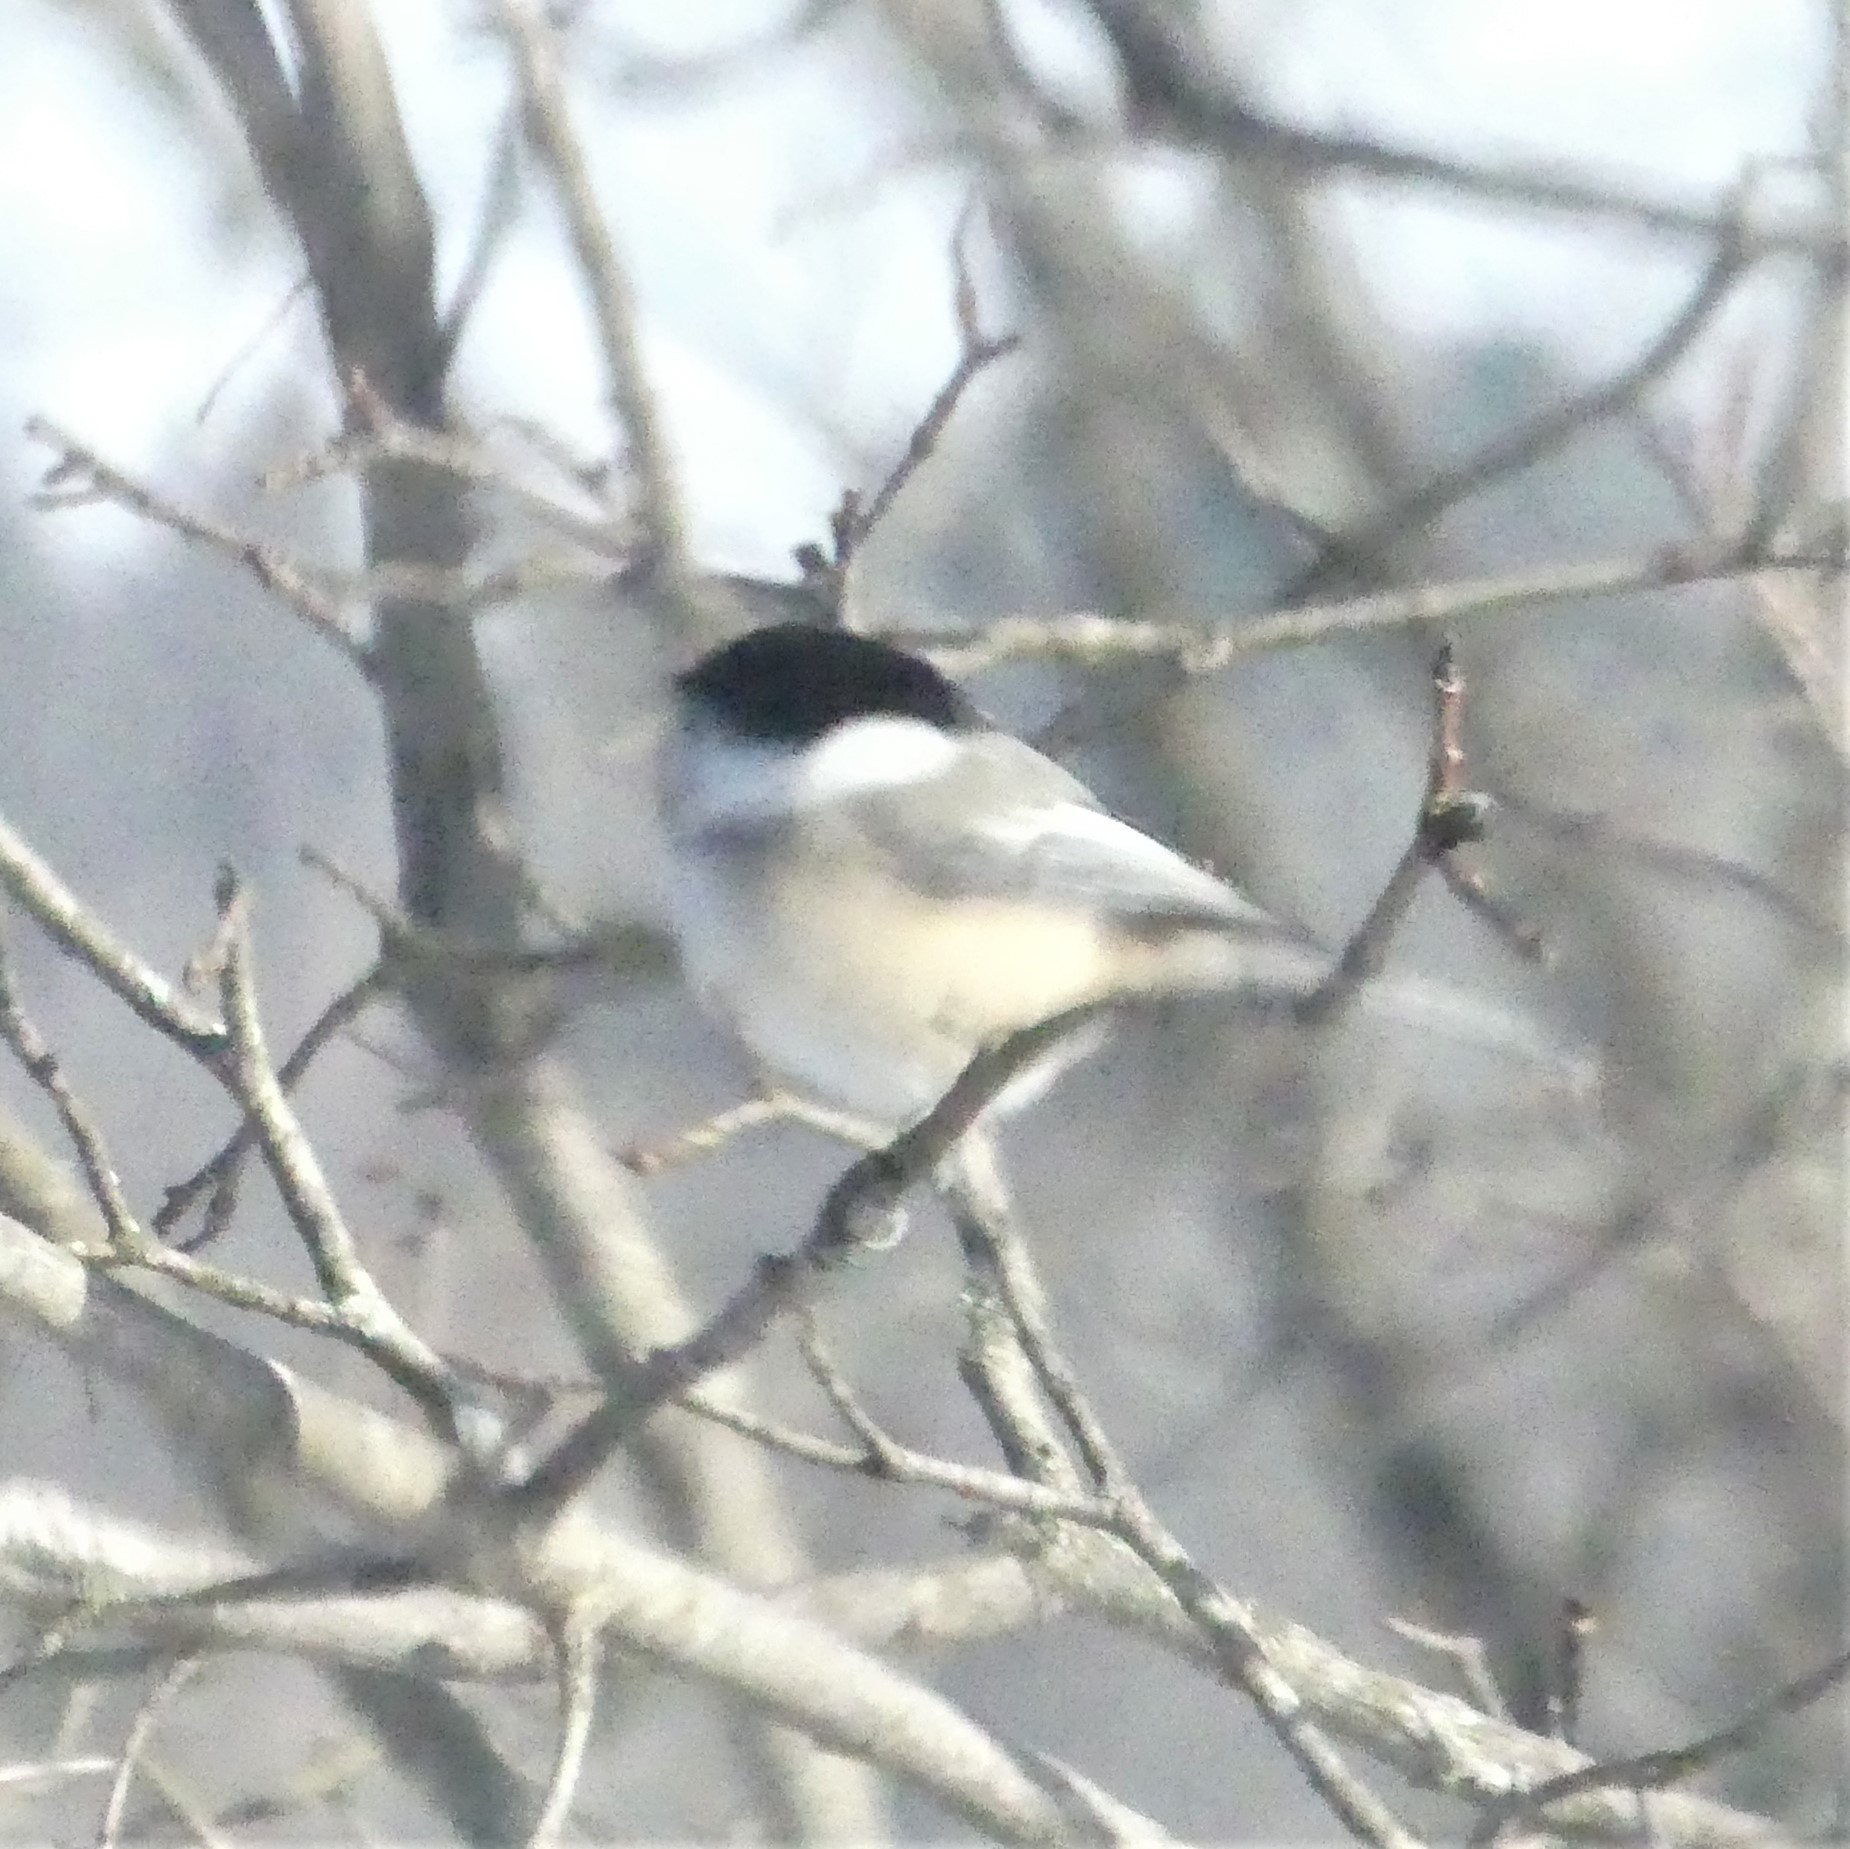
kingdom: Animalia
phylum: Chordata
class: Aves
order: Passeriformes
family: Paridae
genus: Poecile
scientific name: Poecile atricapillus
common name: Black-capped chickadee
